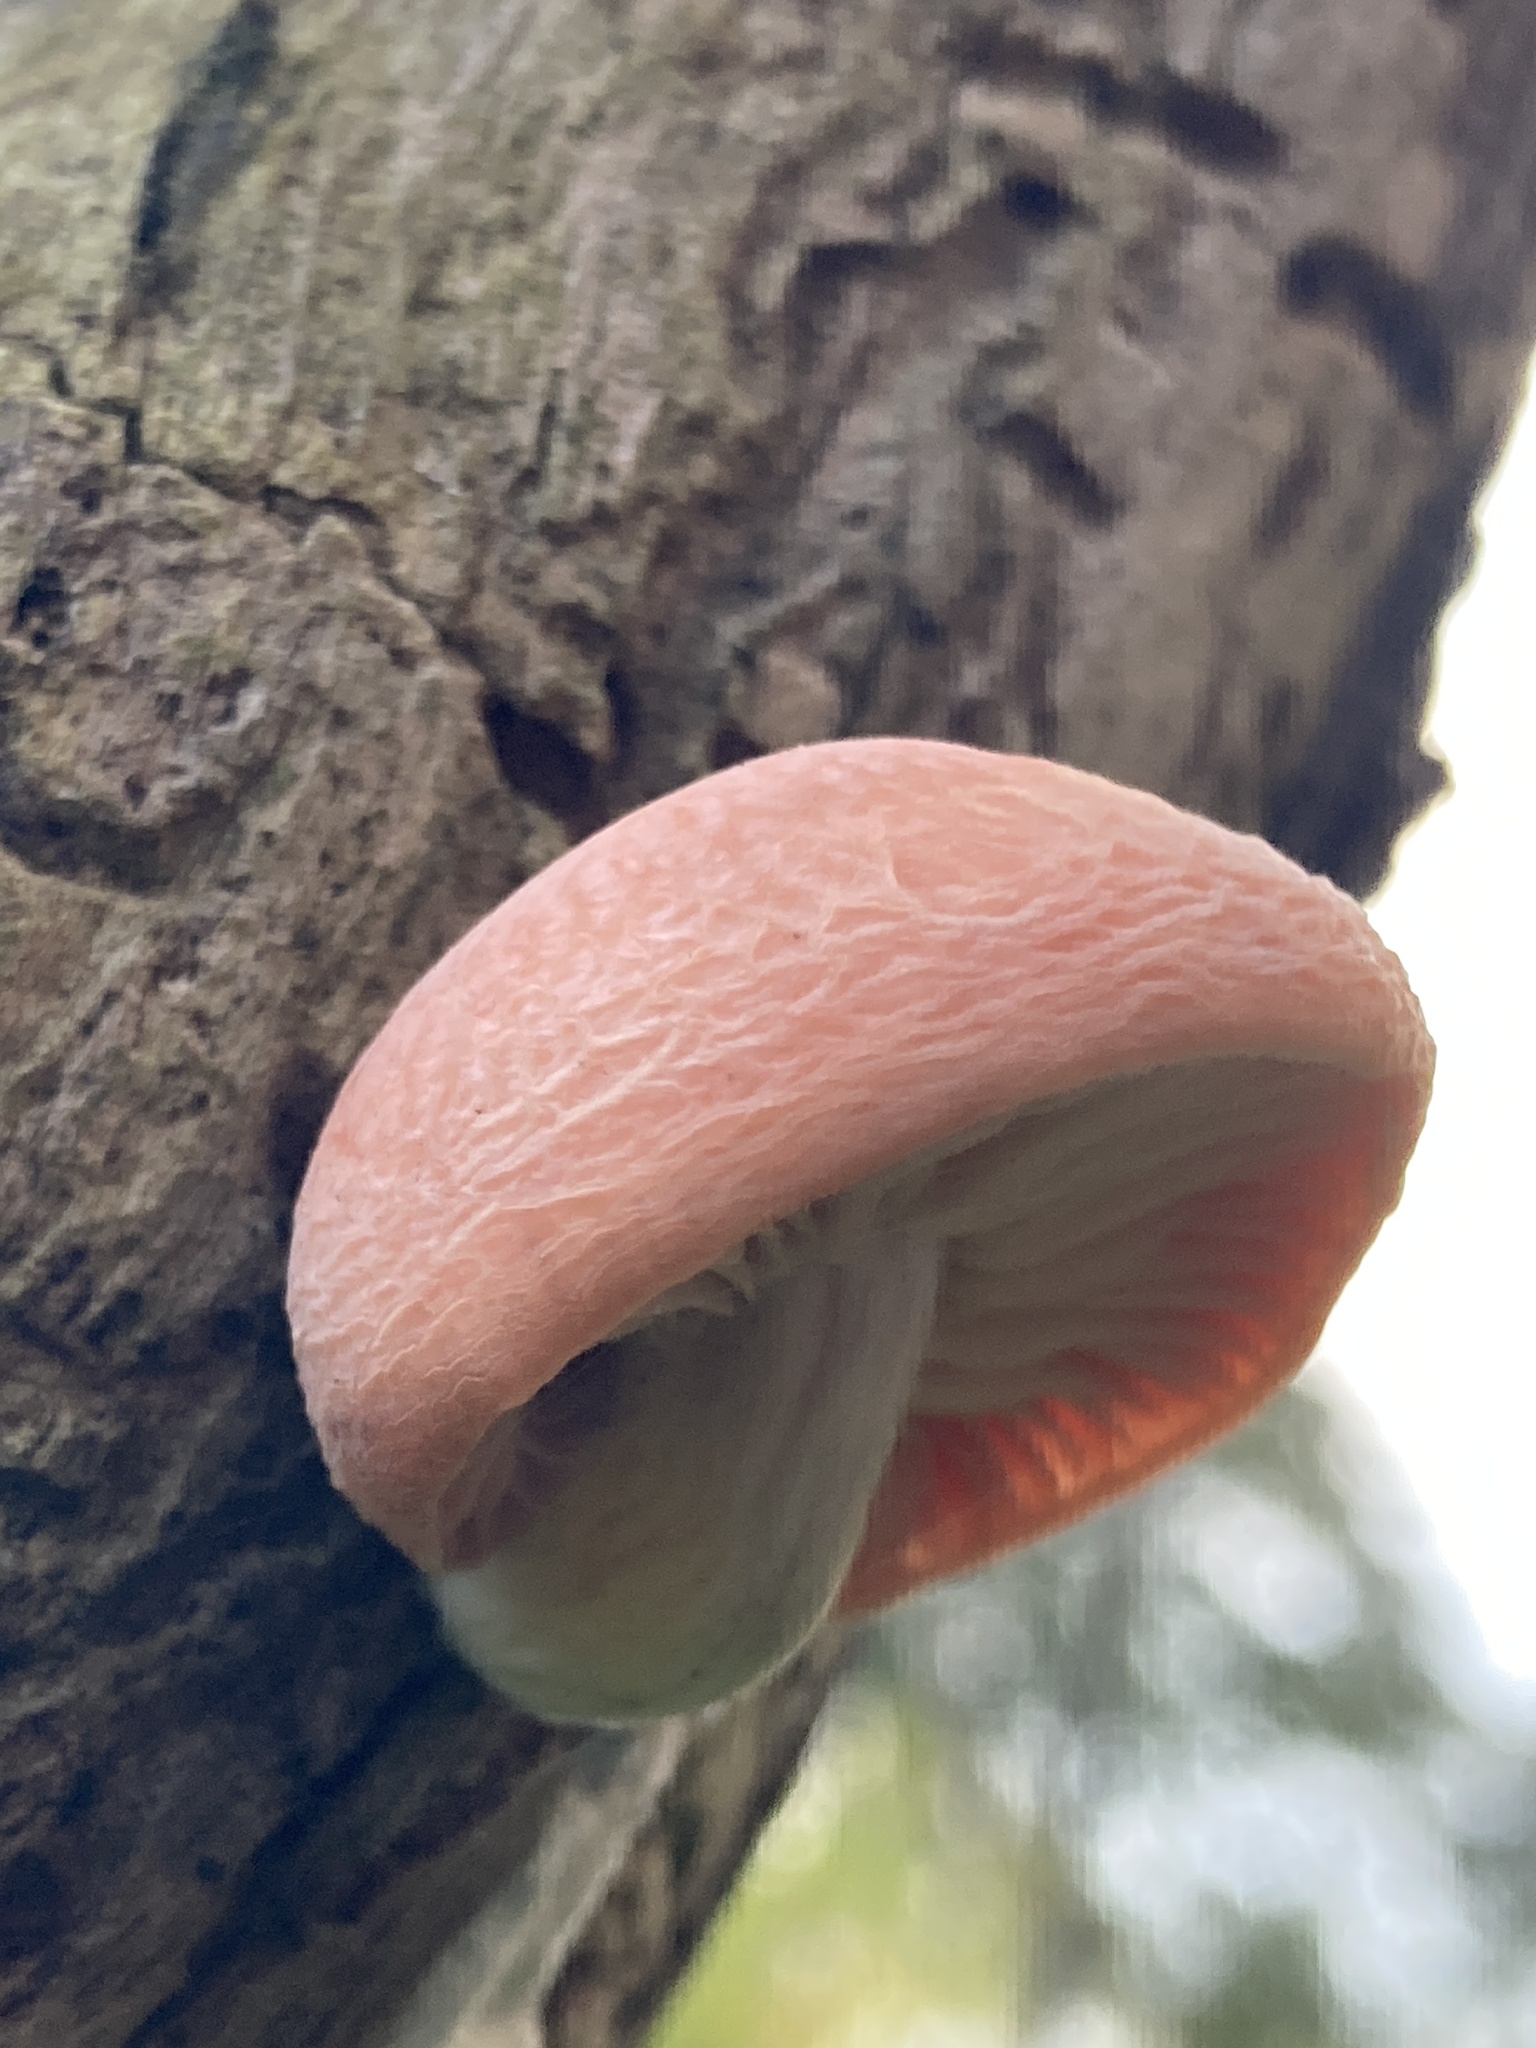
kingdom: Fungi
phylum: Basidiomycota
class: Agaricomycetes
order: Agaricales
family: Physalacriaceae
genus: Rhodotus
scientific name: Rhodotus palmatus
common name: Wrinkled peach
